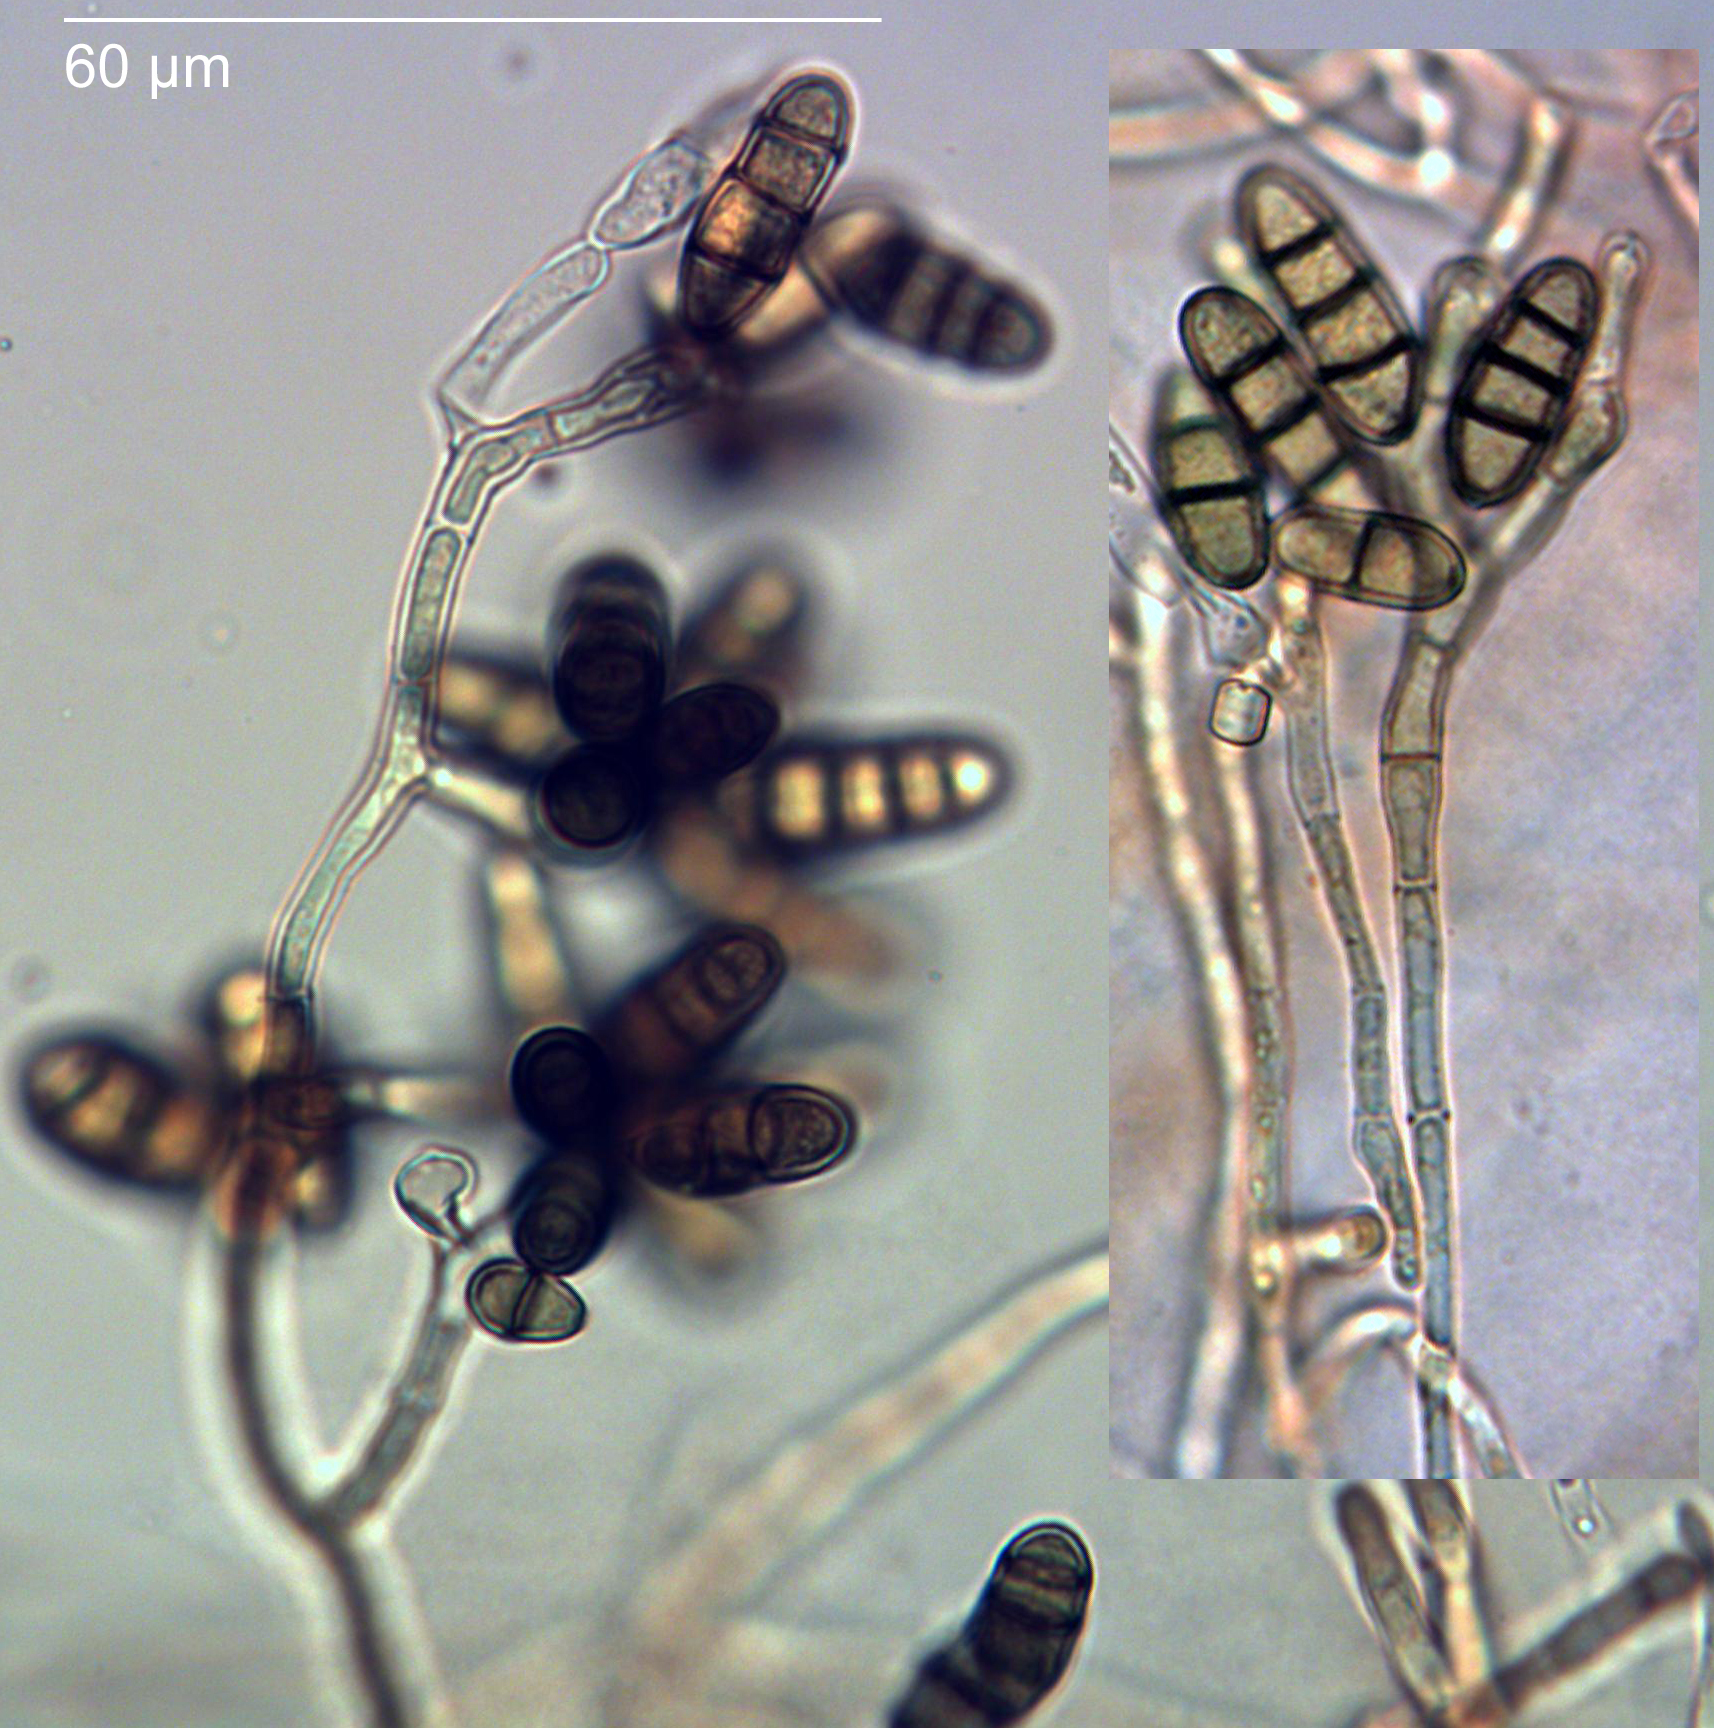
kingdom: Fungi
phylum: Ascomycota
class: Dothideomycetes
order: Pleosporales
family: Pleosporaceae
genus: Paradendryphiella
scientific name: Paradendryphiella salina
